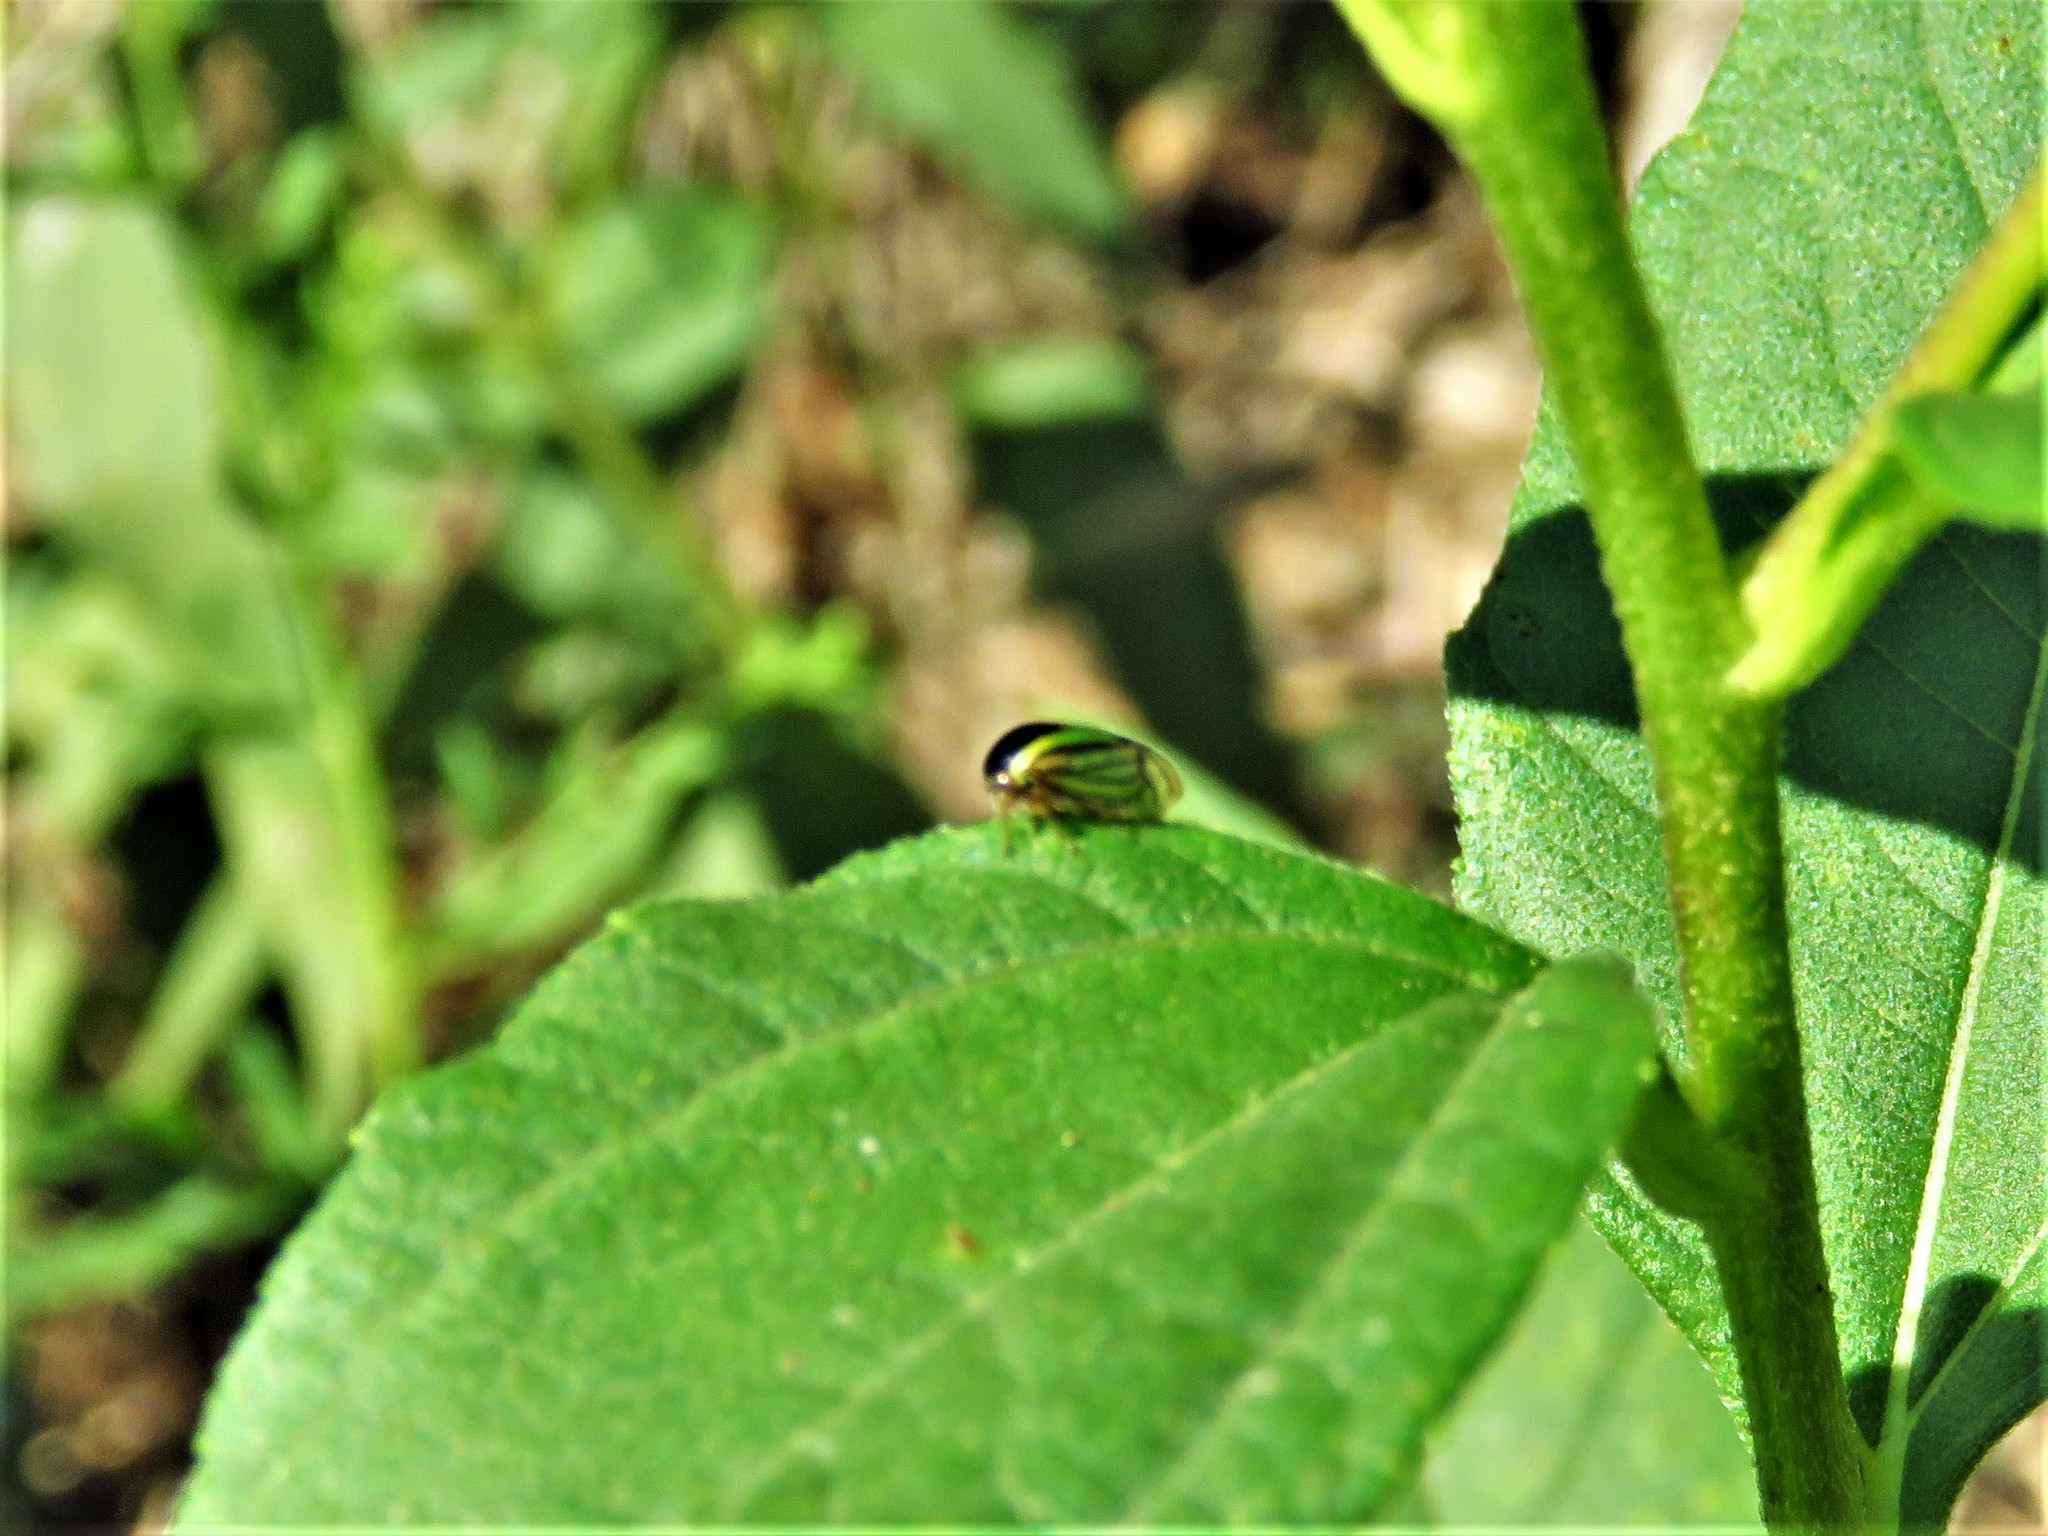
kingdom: Animalia
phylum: Arthropoda
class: Insecta
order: Hemiptera
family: Membracidae
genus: Acutalis
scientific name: Acutalis tartarea
